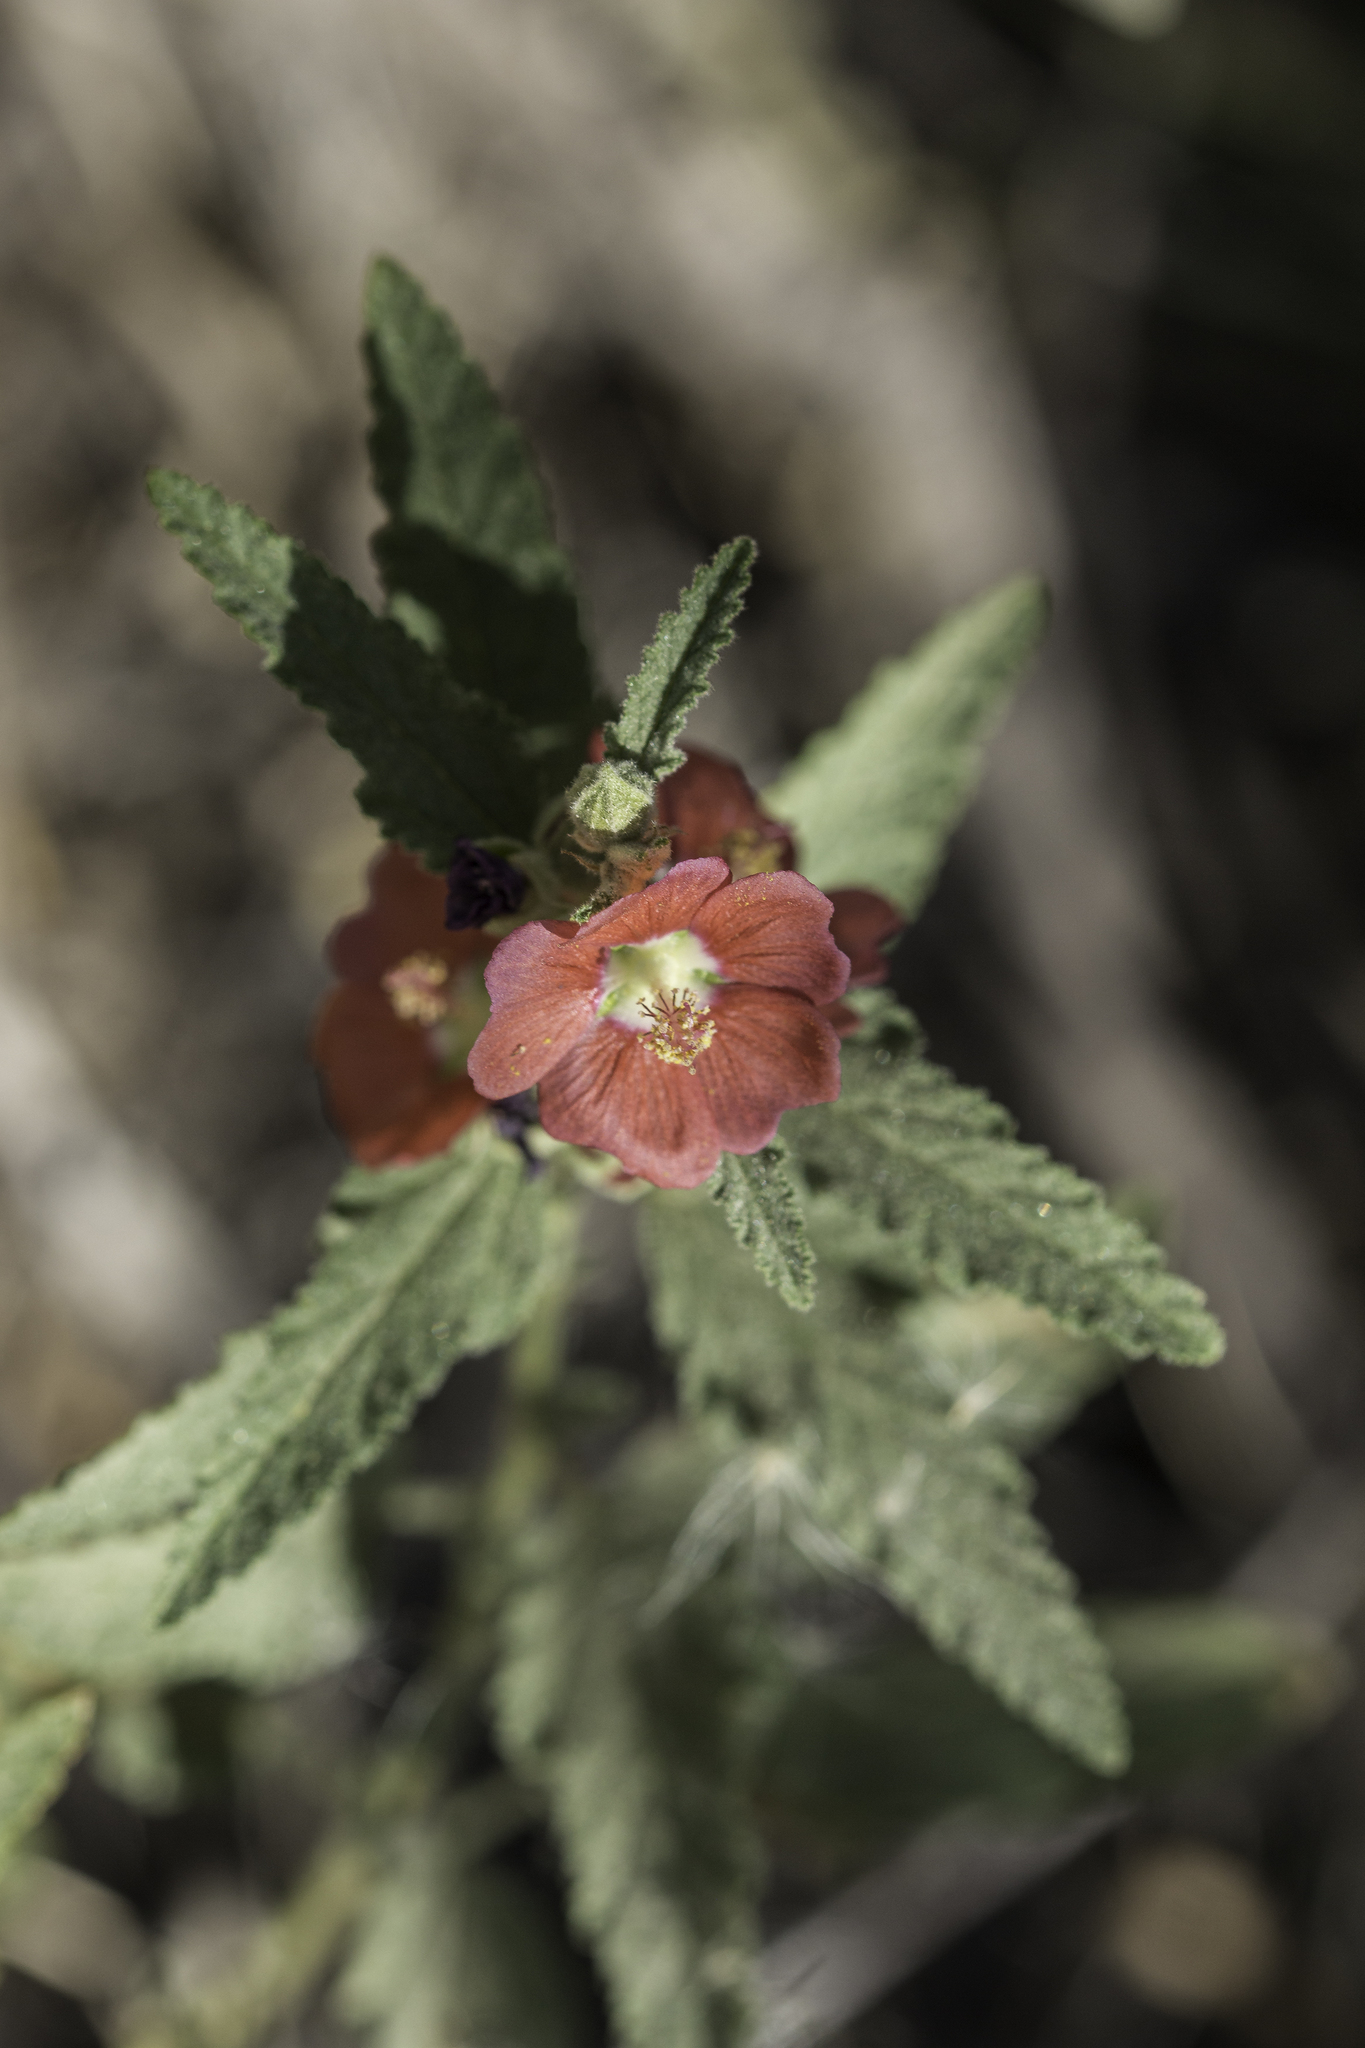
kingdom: Plantae
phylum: Tracheophyta
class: Magnoliopsida
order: Malvales
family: Malvaceae
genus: Sphaeralcea
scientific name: Sphaeralcea angustifolia
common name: Copper globe-mallow
